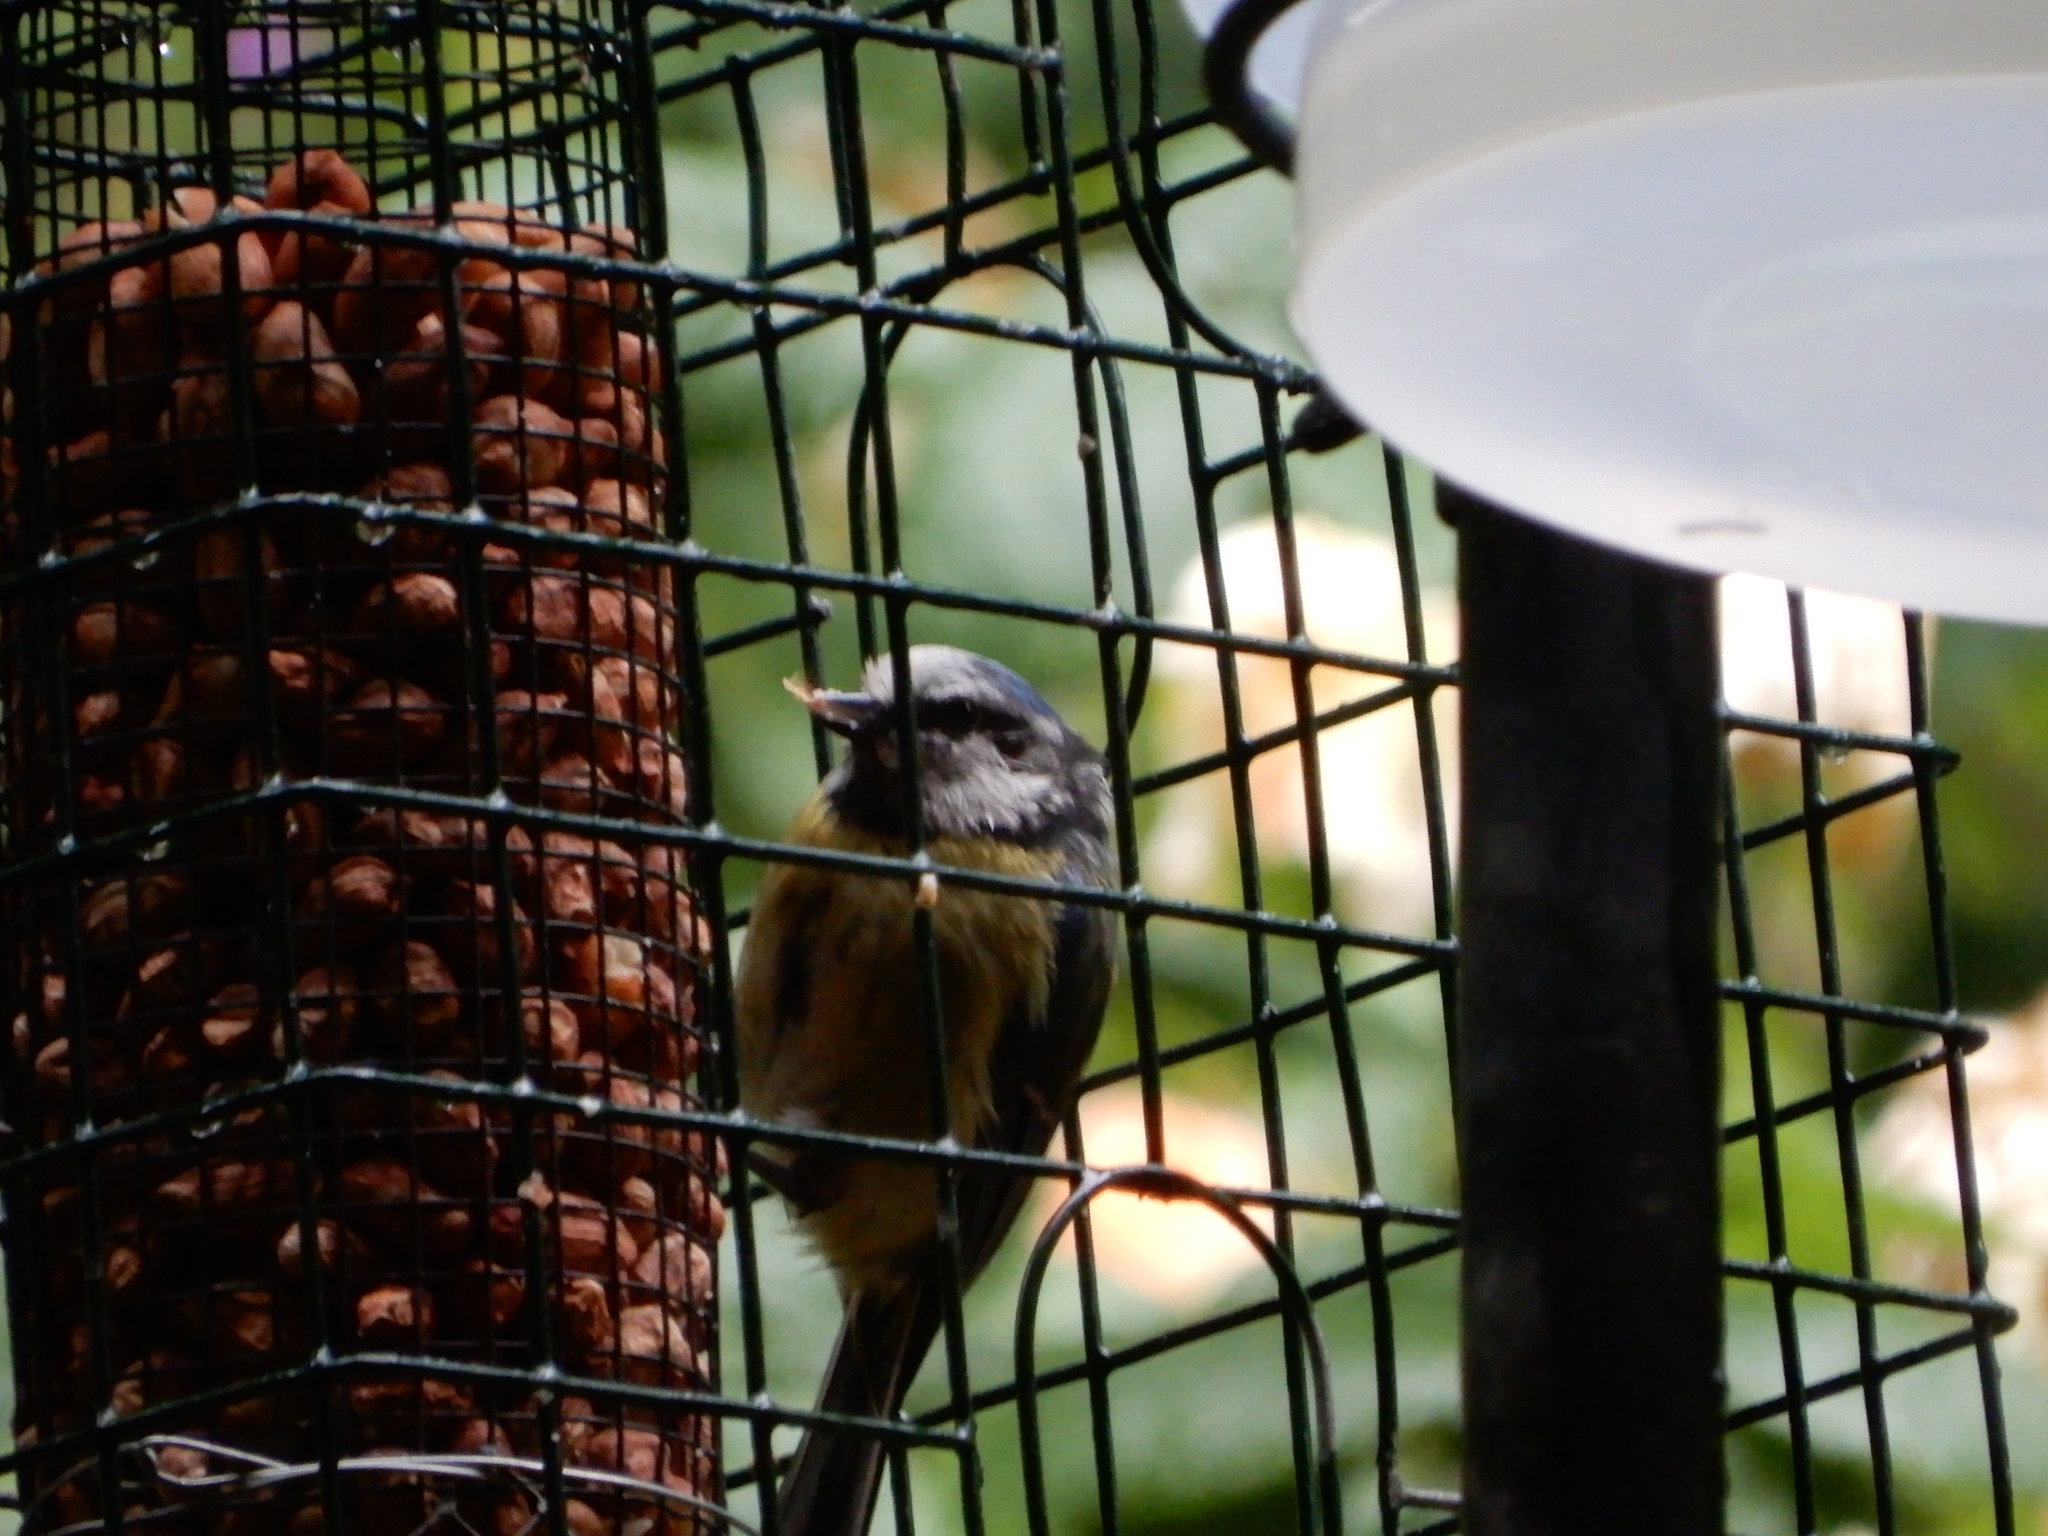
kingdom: Animalia
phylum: Chordata
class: Aves
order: Passeriformes
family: Paridae
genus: Cyanistes
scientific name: Cyanistes caeruleus
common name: Eurasian blue tit
